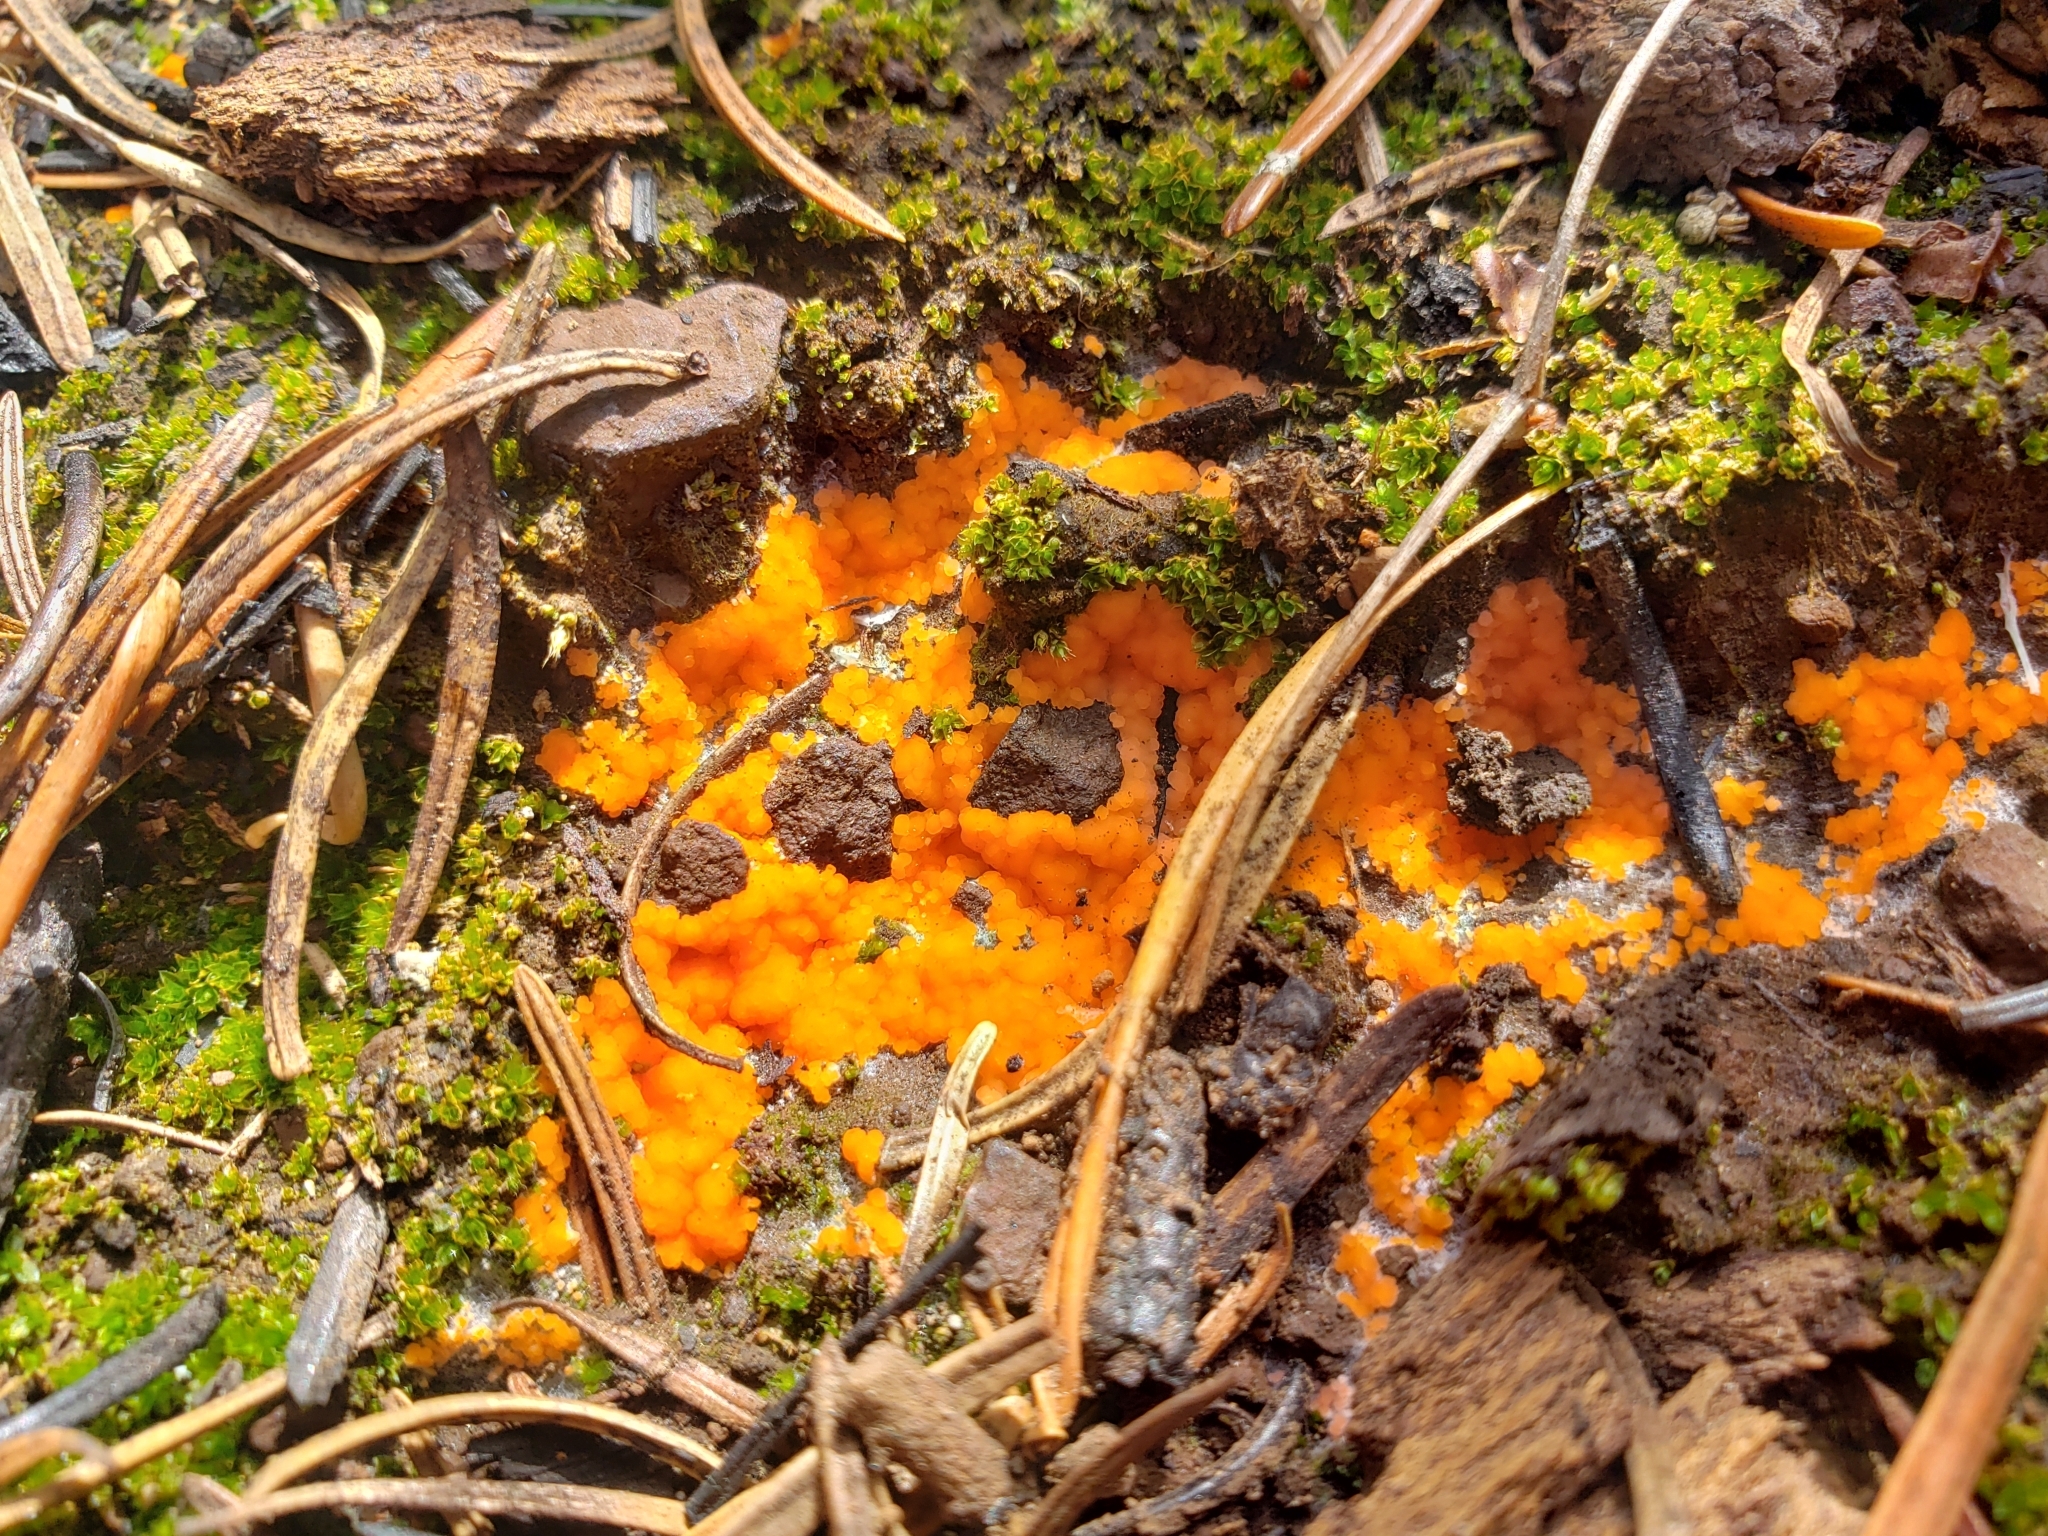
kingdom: Fungi
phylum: Ascomycota
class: Pezizomycetes
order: Pezizales
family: Pyronemataceae
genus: Pyronema
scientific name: Pyronema omphalodes
